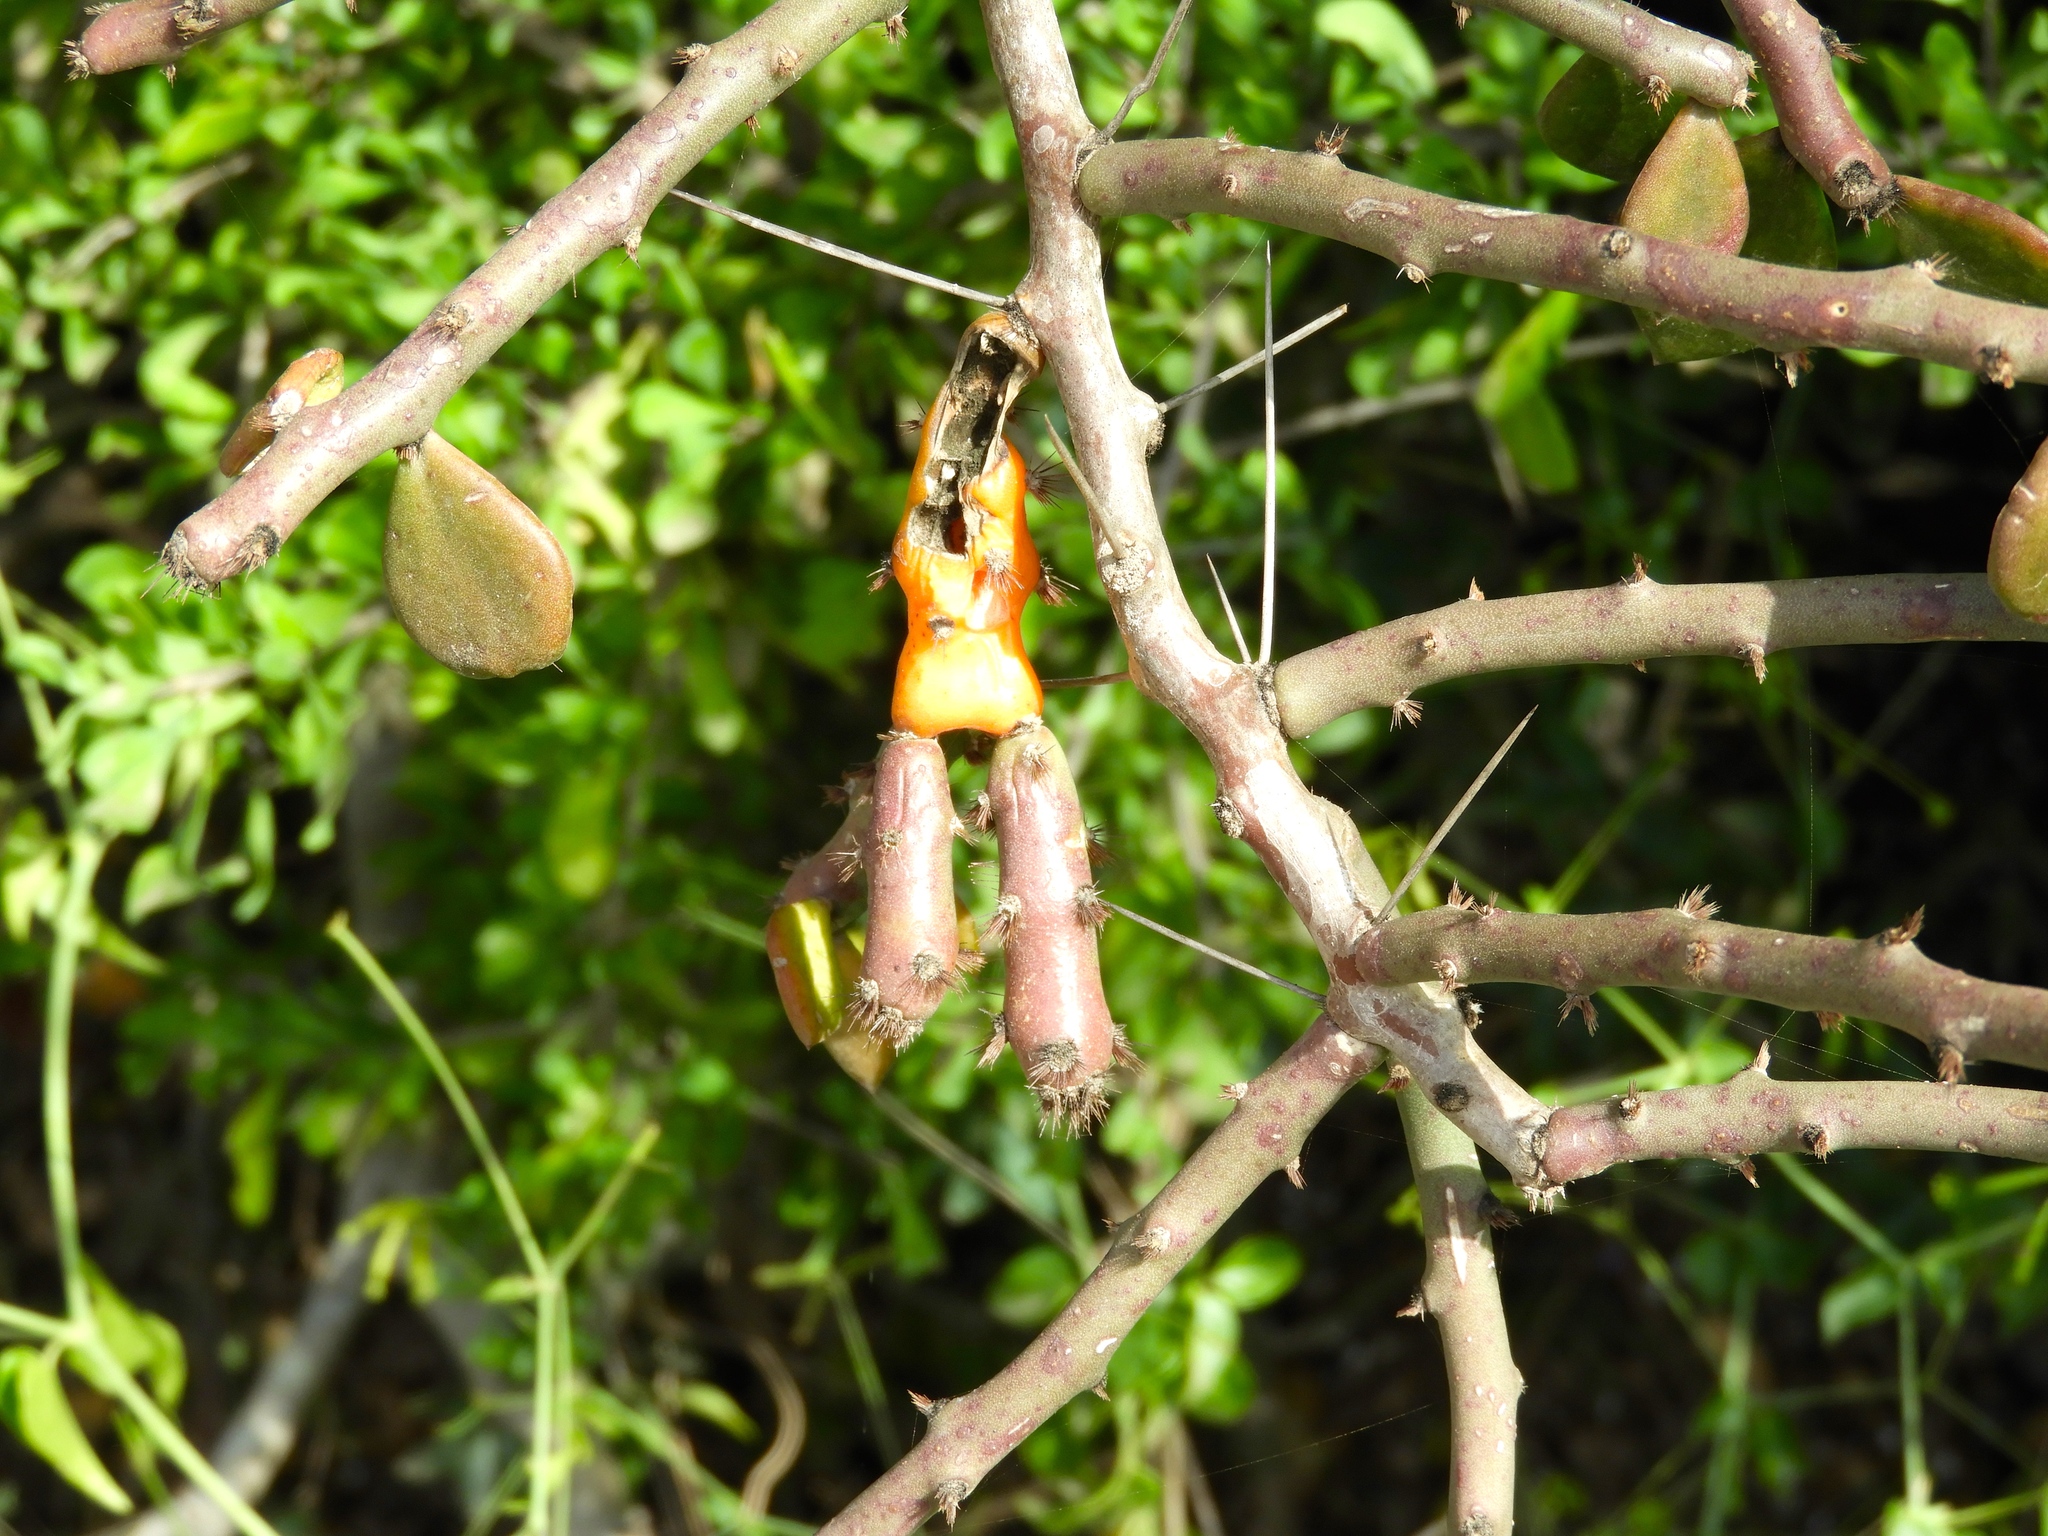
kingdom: Plantae
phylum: Tracheophyta
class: Magnoliopsida
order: Caryophyllales
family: Cactaceae
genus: Pereskiopsis
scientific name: Pereskiopsis porteri
